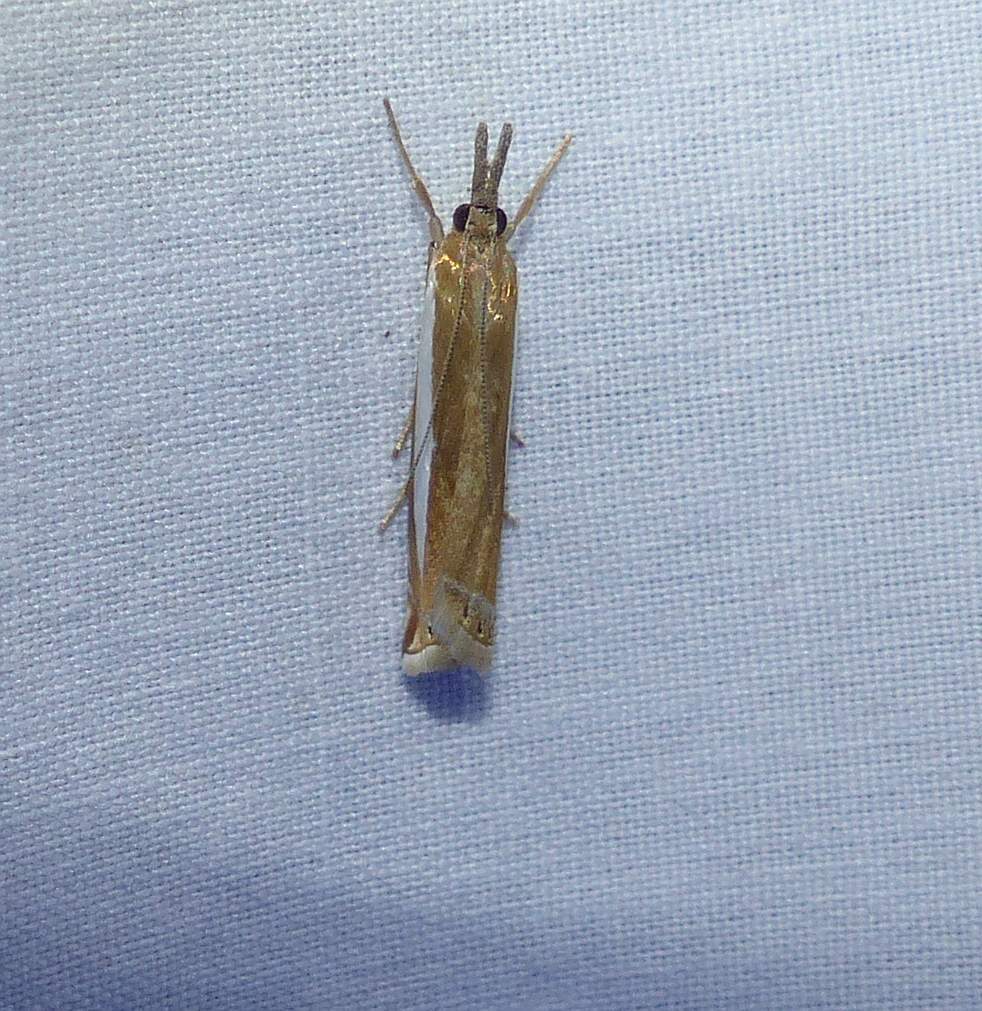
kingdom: Animalia
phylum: Arthropoda
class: Insecta
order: Lepidoptera
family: Crambidae
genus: Crambus
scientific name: Crambus praefectellus
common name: Common grass-veneer
